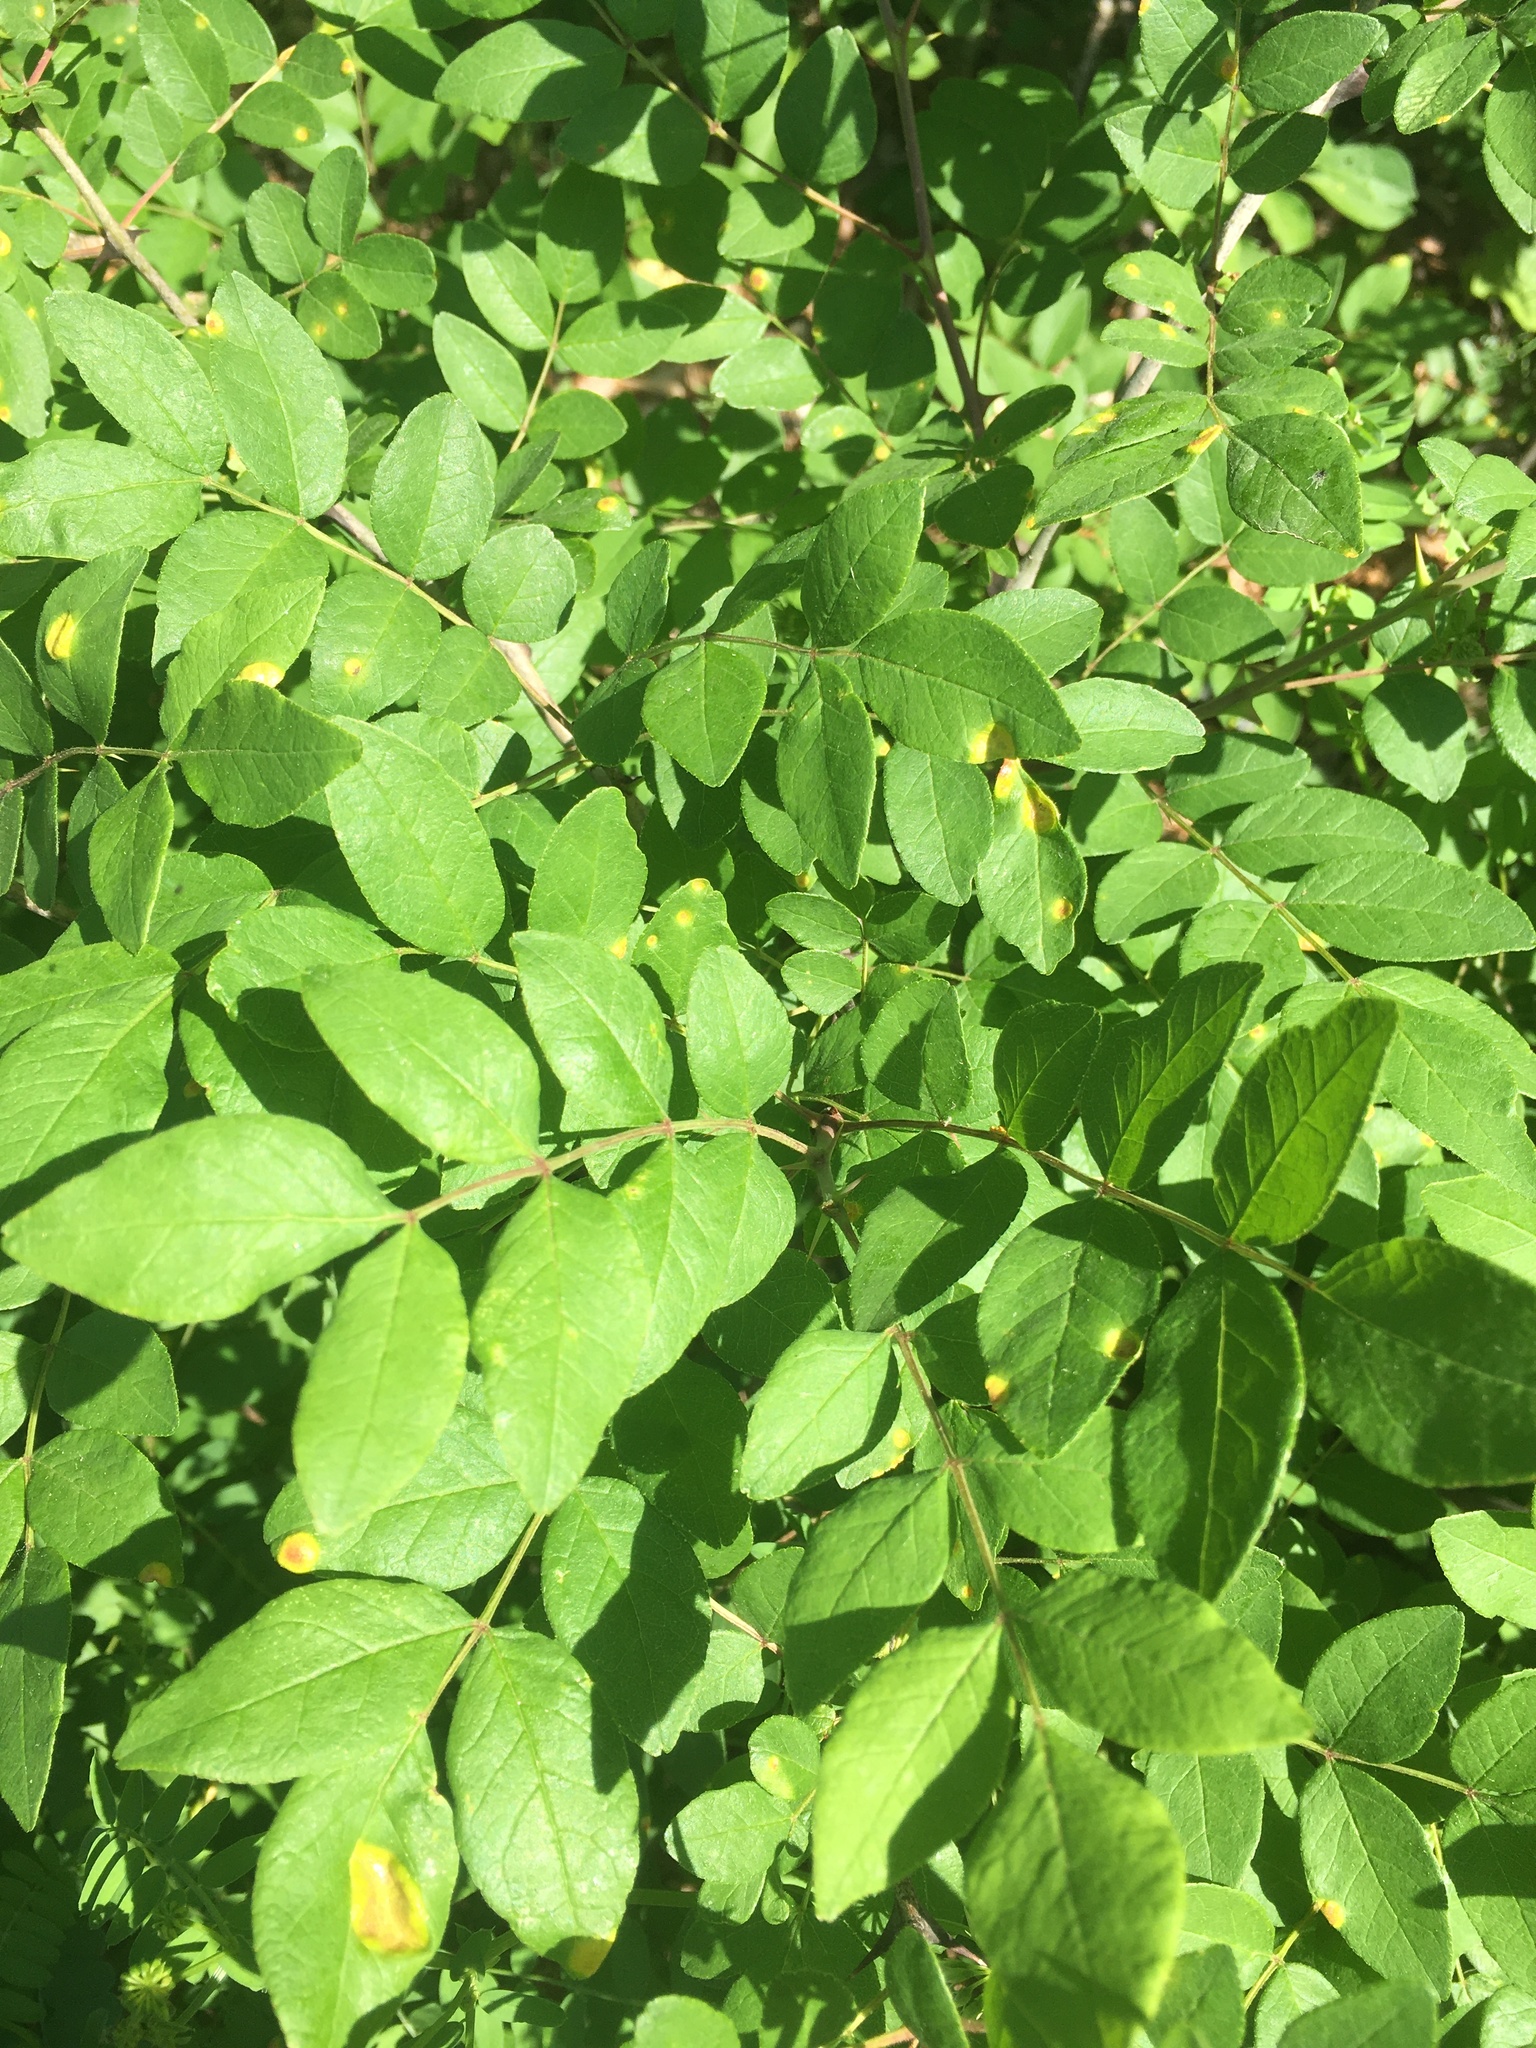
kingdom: Plantae
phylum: Tracheophyta
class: Magnoliopsida
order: Sapindales
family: Rutaceae
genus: Zanthoxylum
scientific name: Zanthoxylum americanum
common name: Northern prickly-ash
